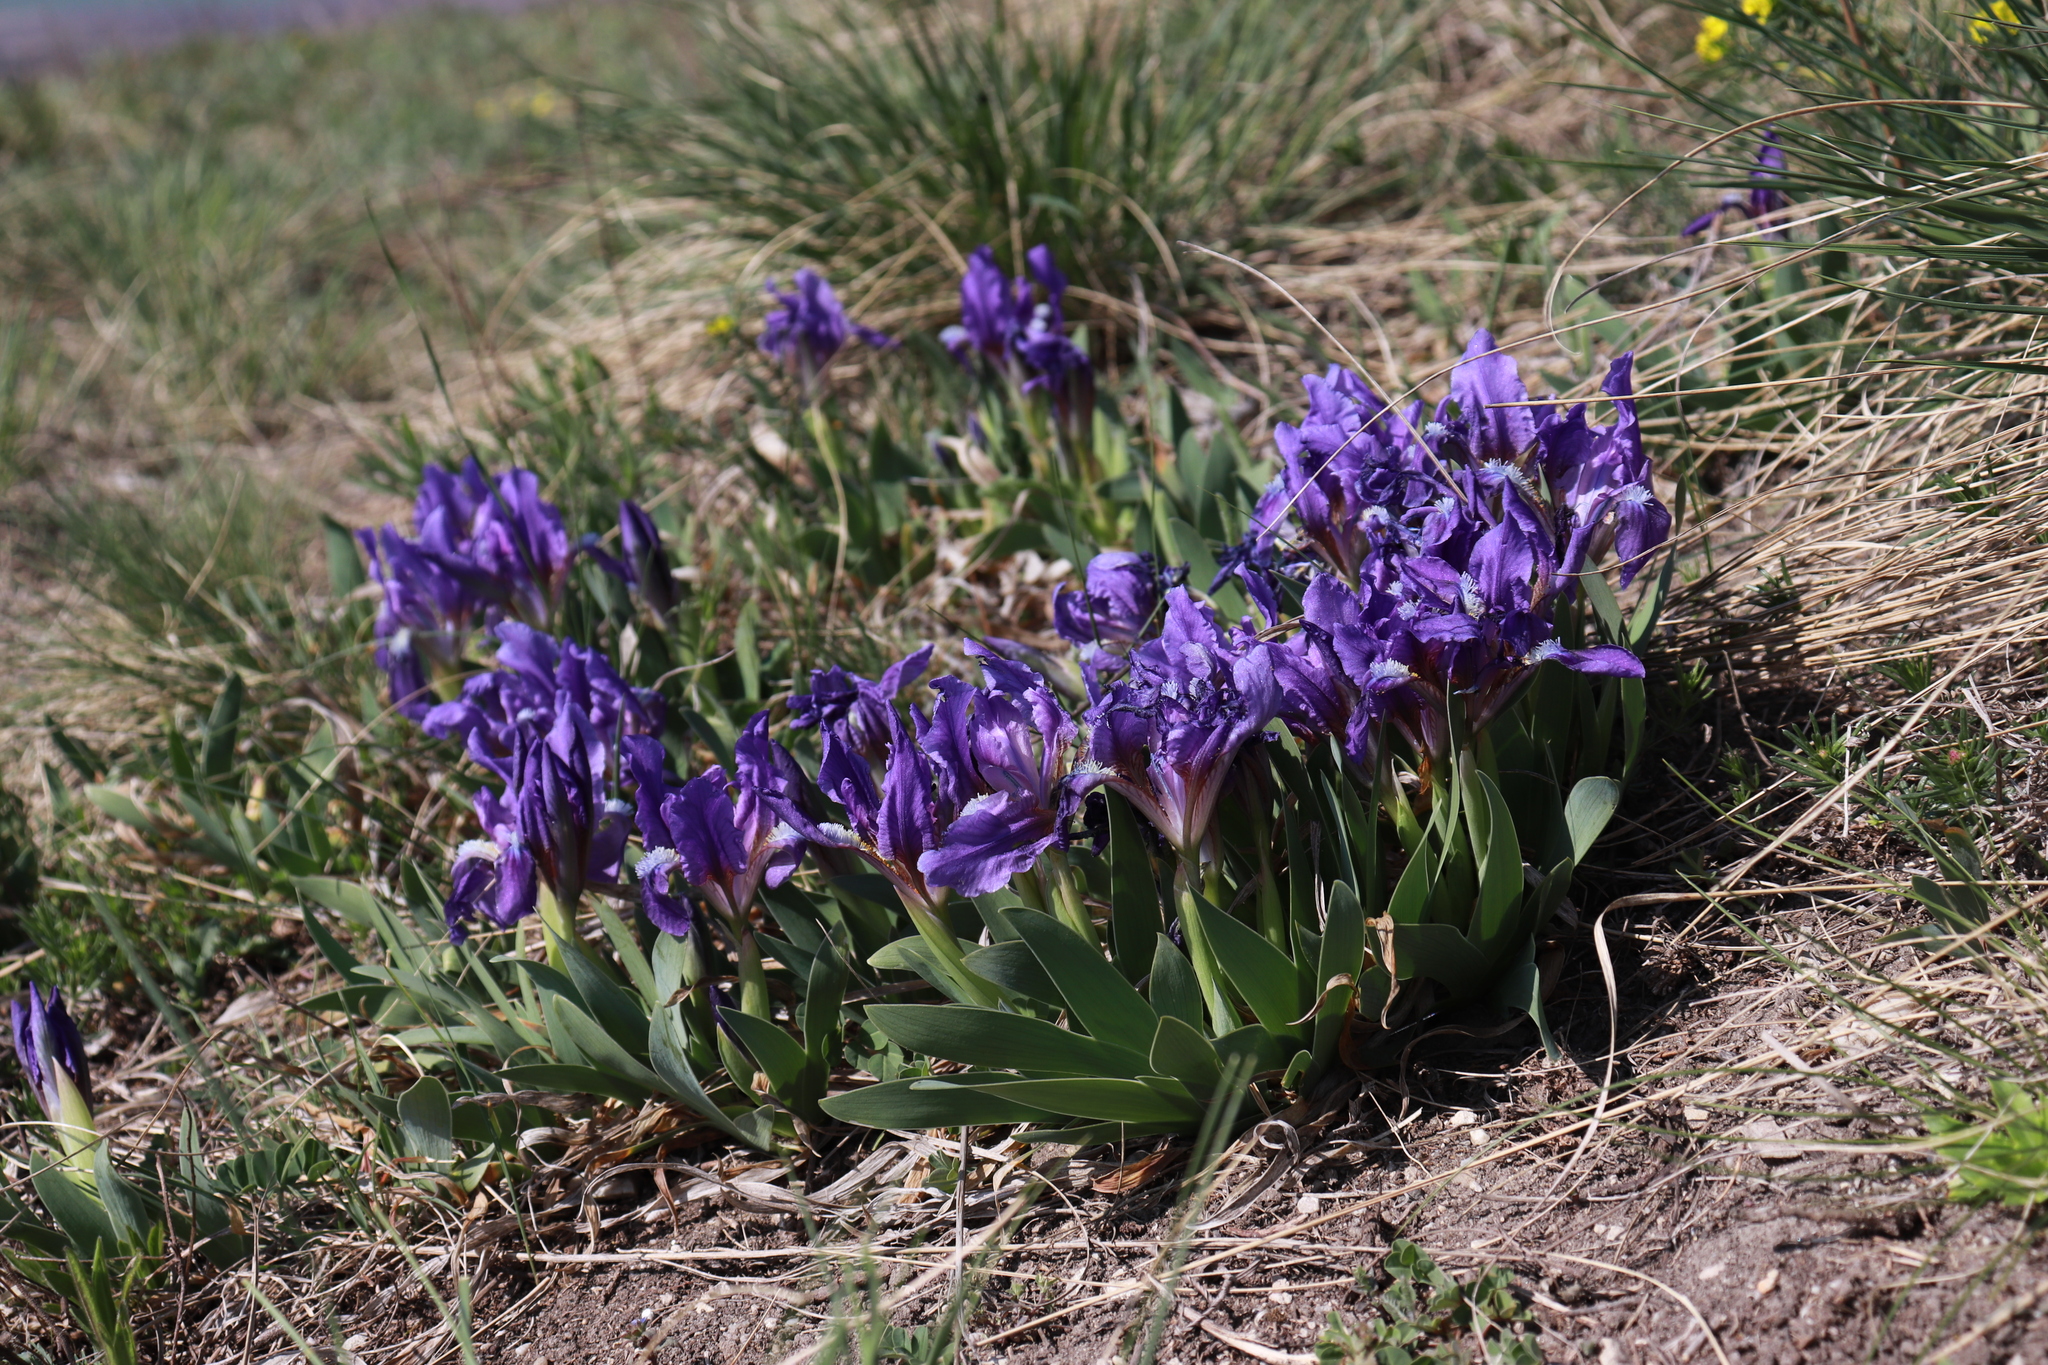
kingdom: Plantae
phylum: Tracheophyta
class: Liliopsida
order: Asparagales
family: Iridaceae
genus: Iris
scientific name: Iris pumila
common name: Dwarf iris
